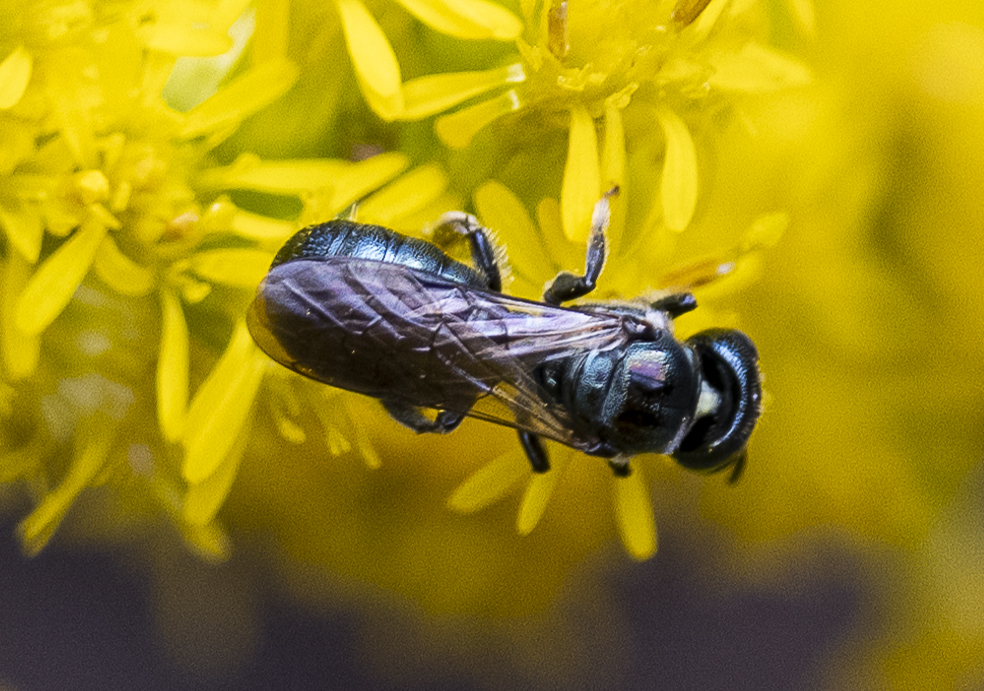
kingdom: Animalia
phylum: Arthropoda
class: Insecta
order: Hymenoptera
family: Apidae
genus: Zadontomerus
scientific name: Zadontomerus
